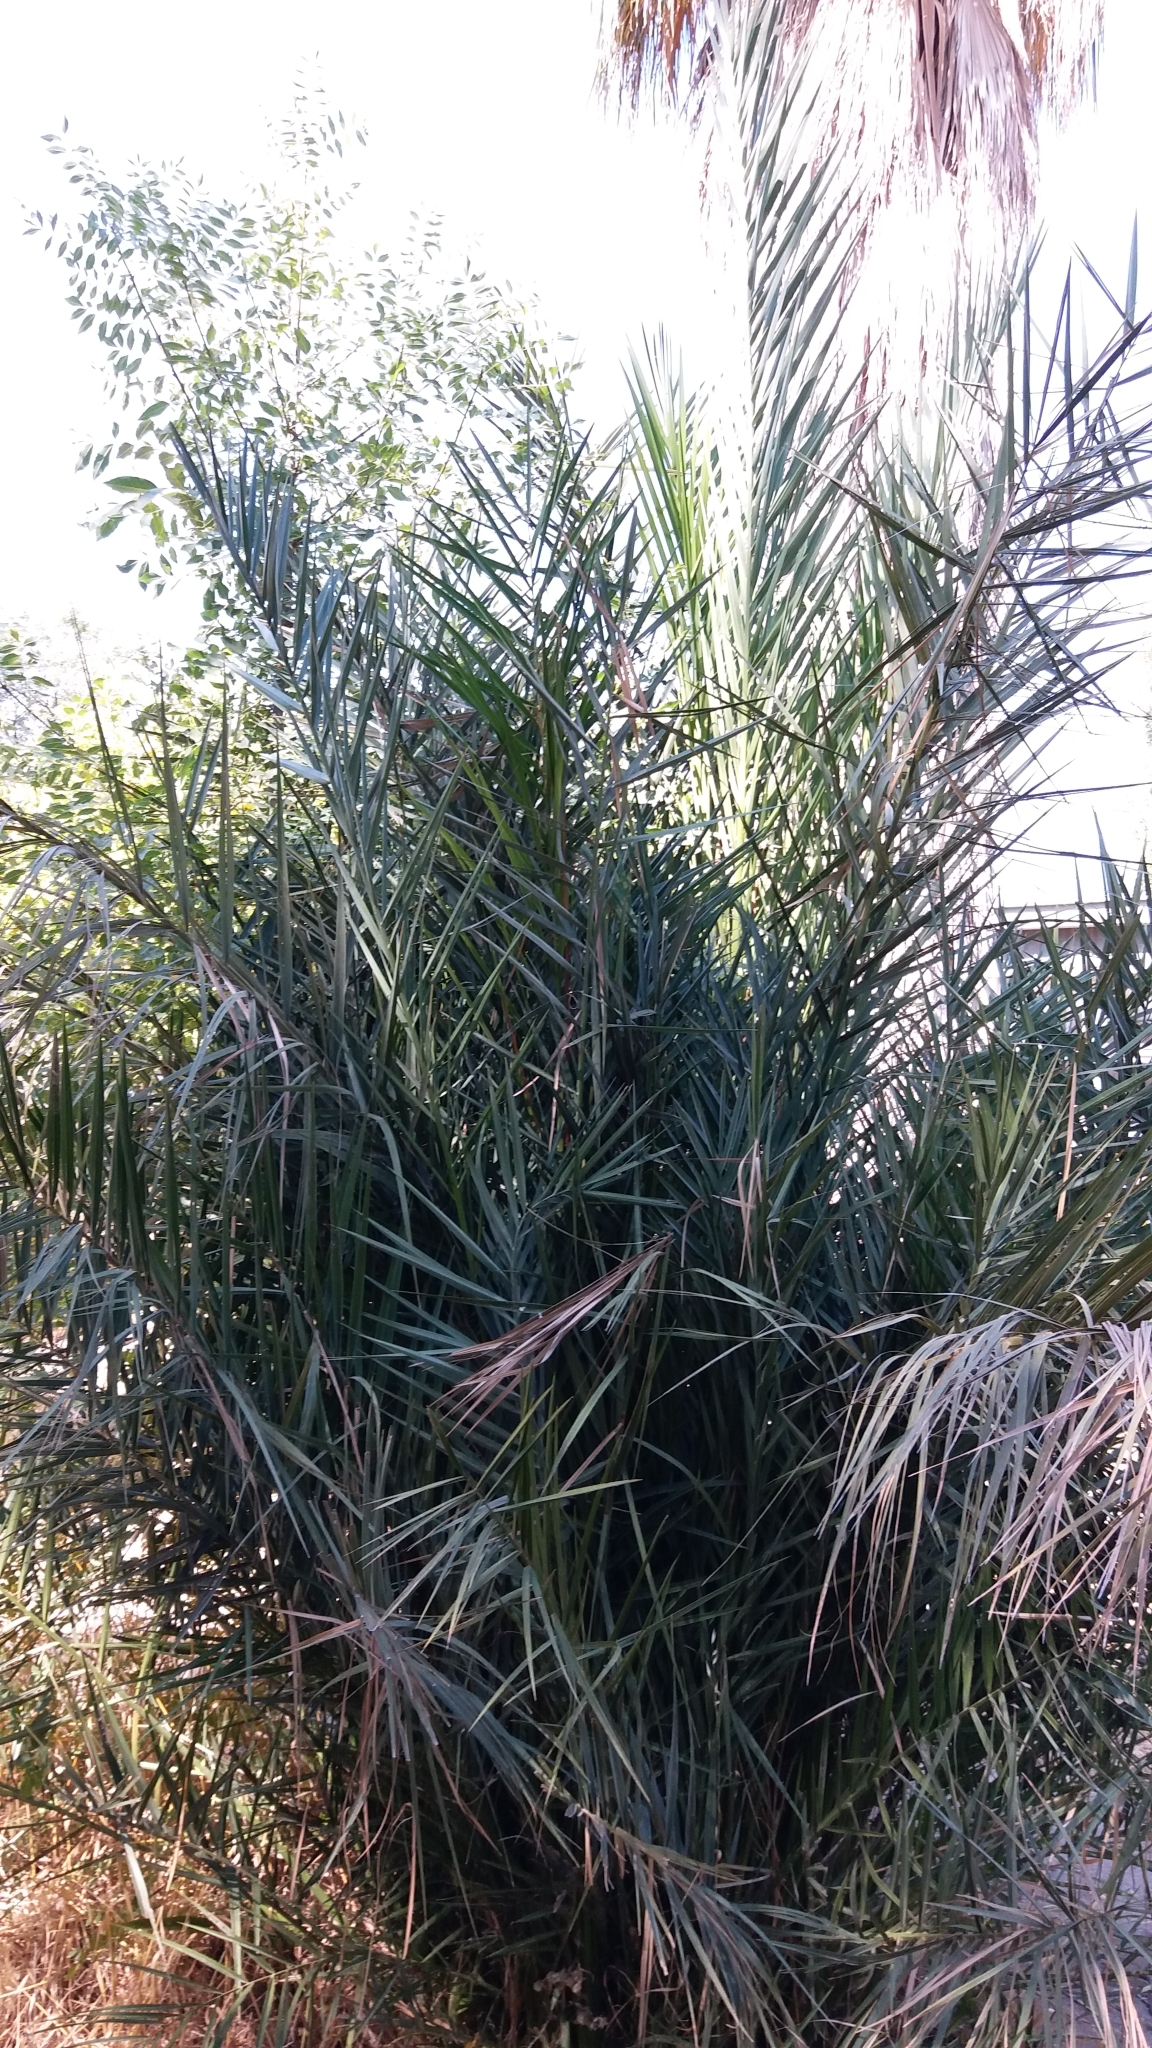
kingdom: Plantae
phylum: Tracheophyta
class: Liliopsida
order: Arecales
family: Arecaceae
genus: Phoenix
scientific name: Phoenix dactylifera
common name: Date palm
